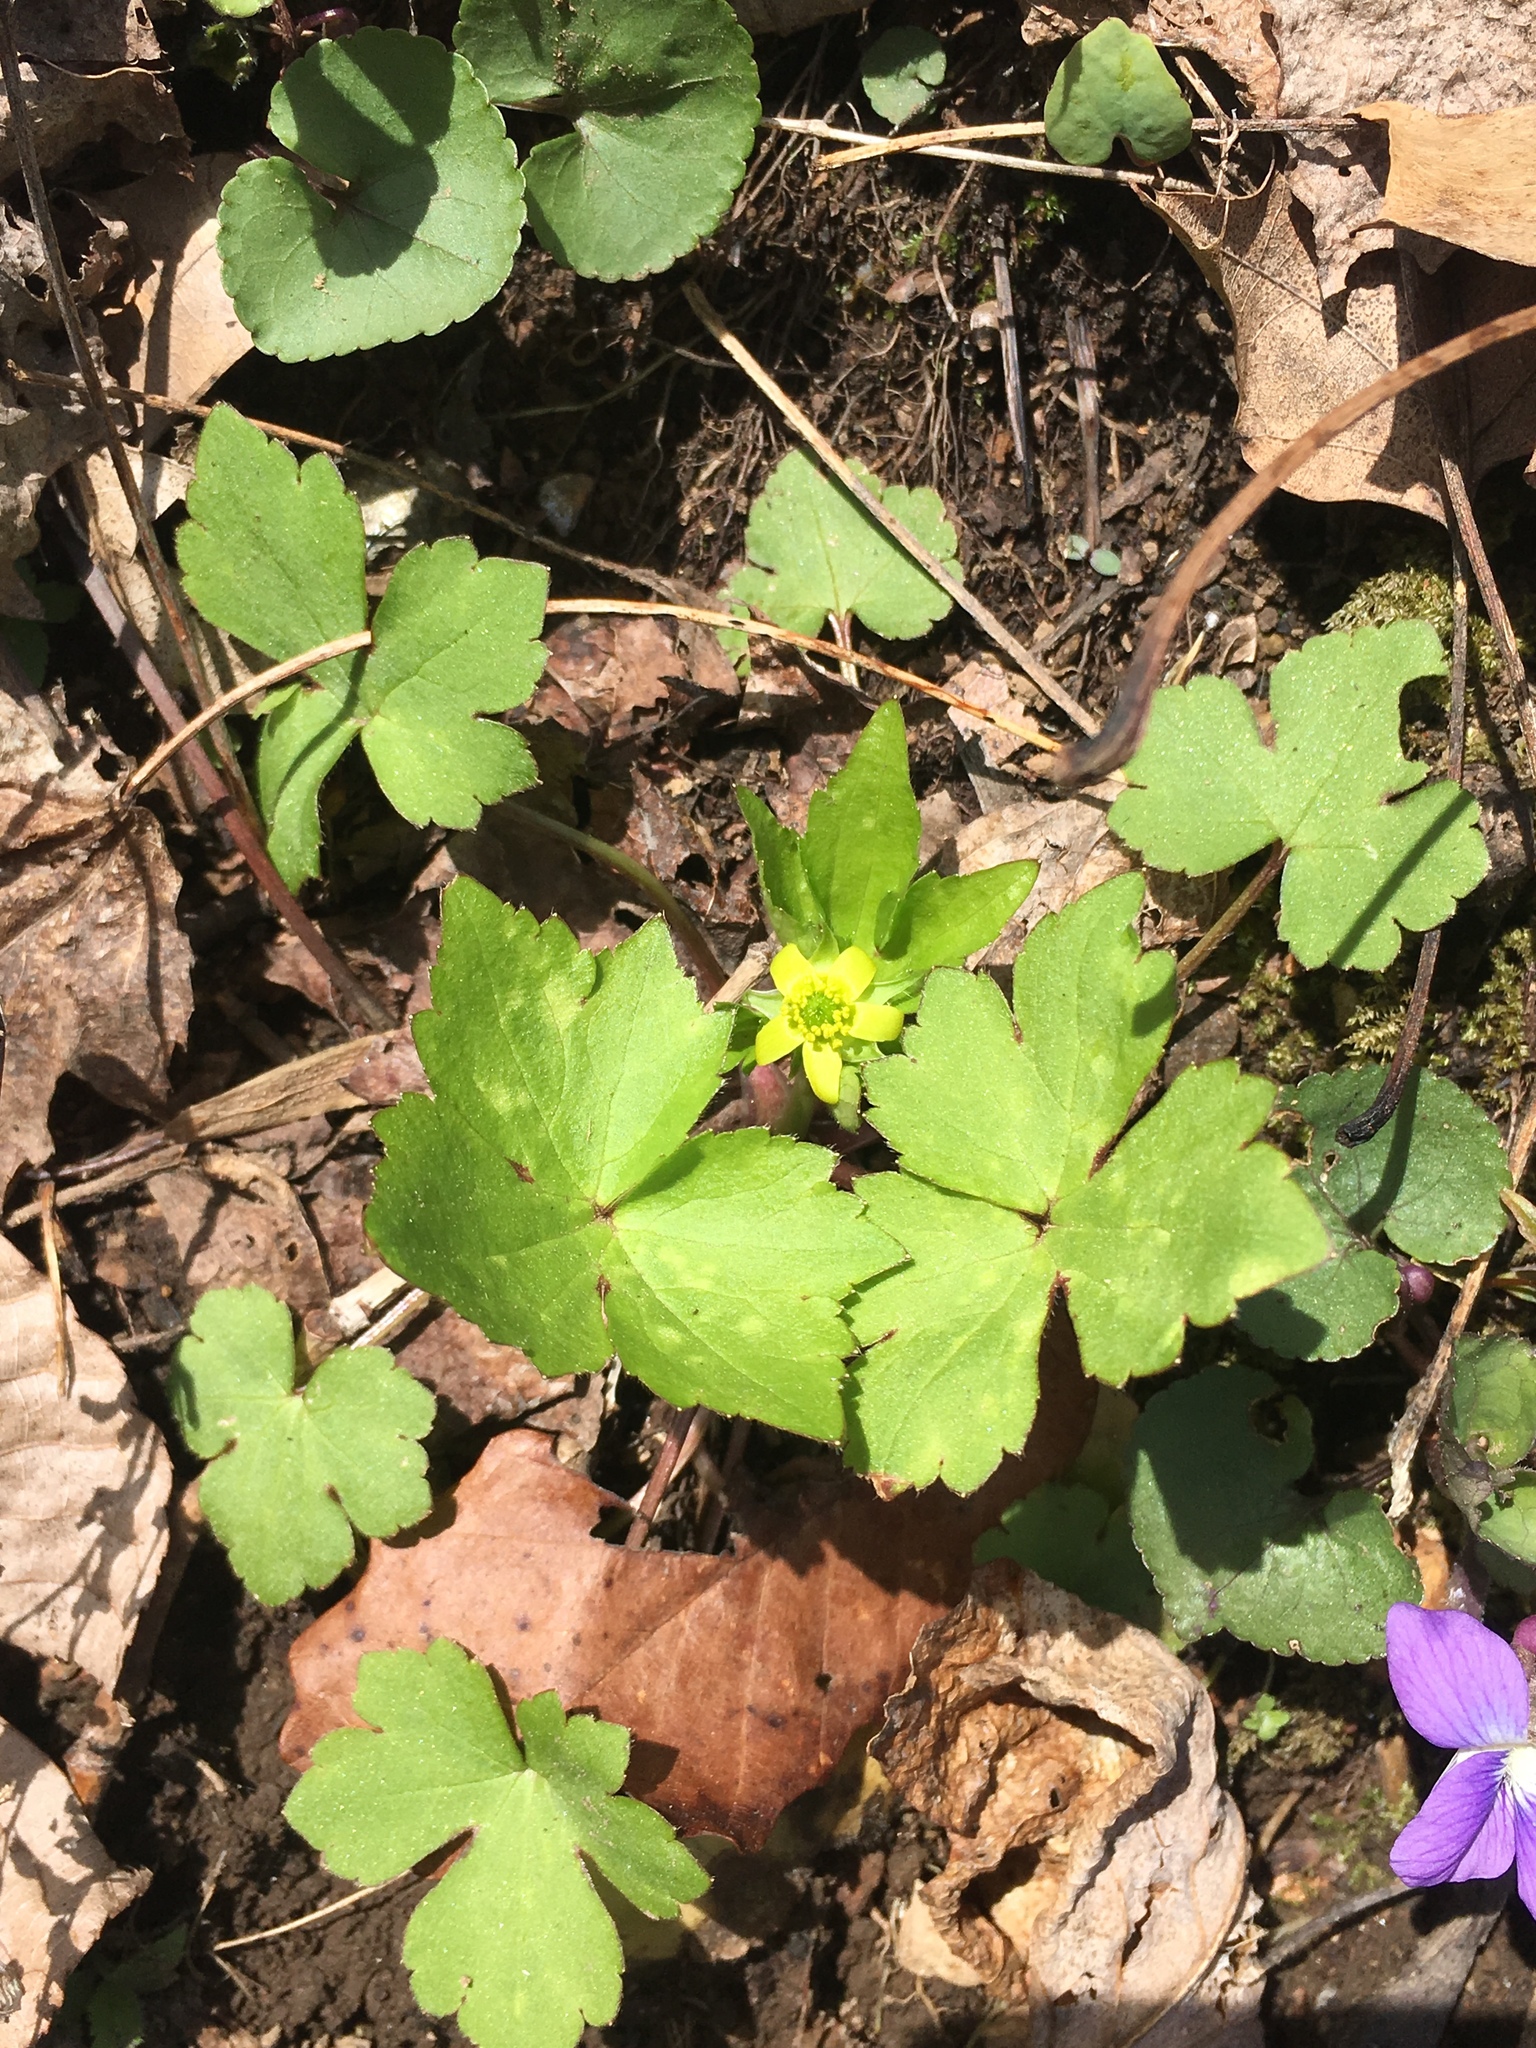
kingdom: Plantae
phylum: Tracheophyta
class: Magnoliopsida
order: Ranunculales
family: Ranunculaceae
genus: Ranunculus
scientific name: Ranunculus recurvatus
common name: Blisterwort
